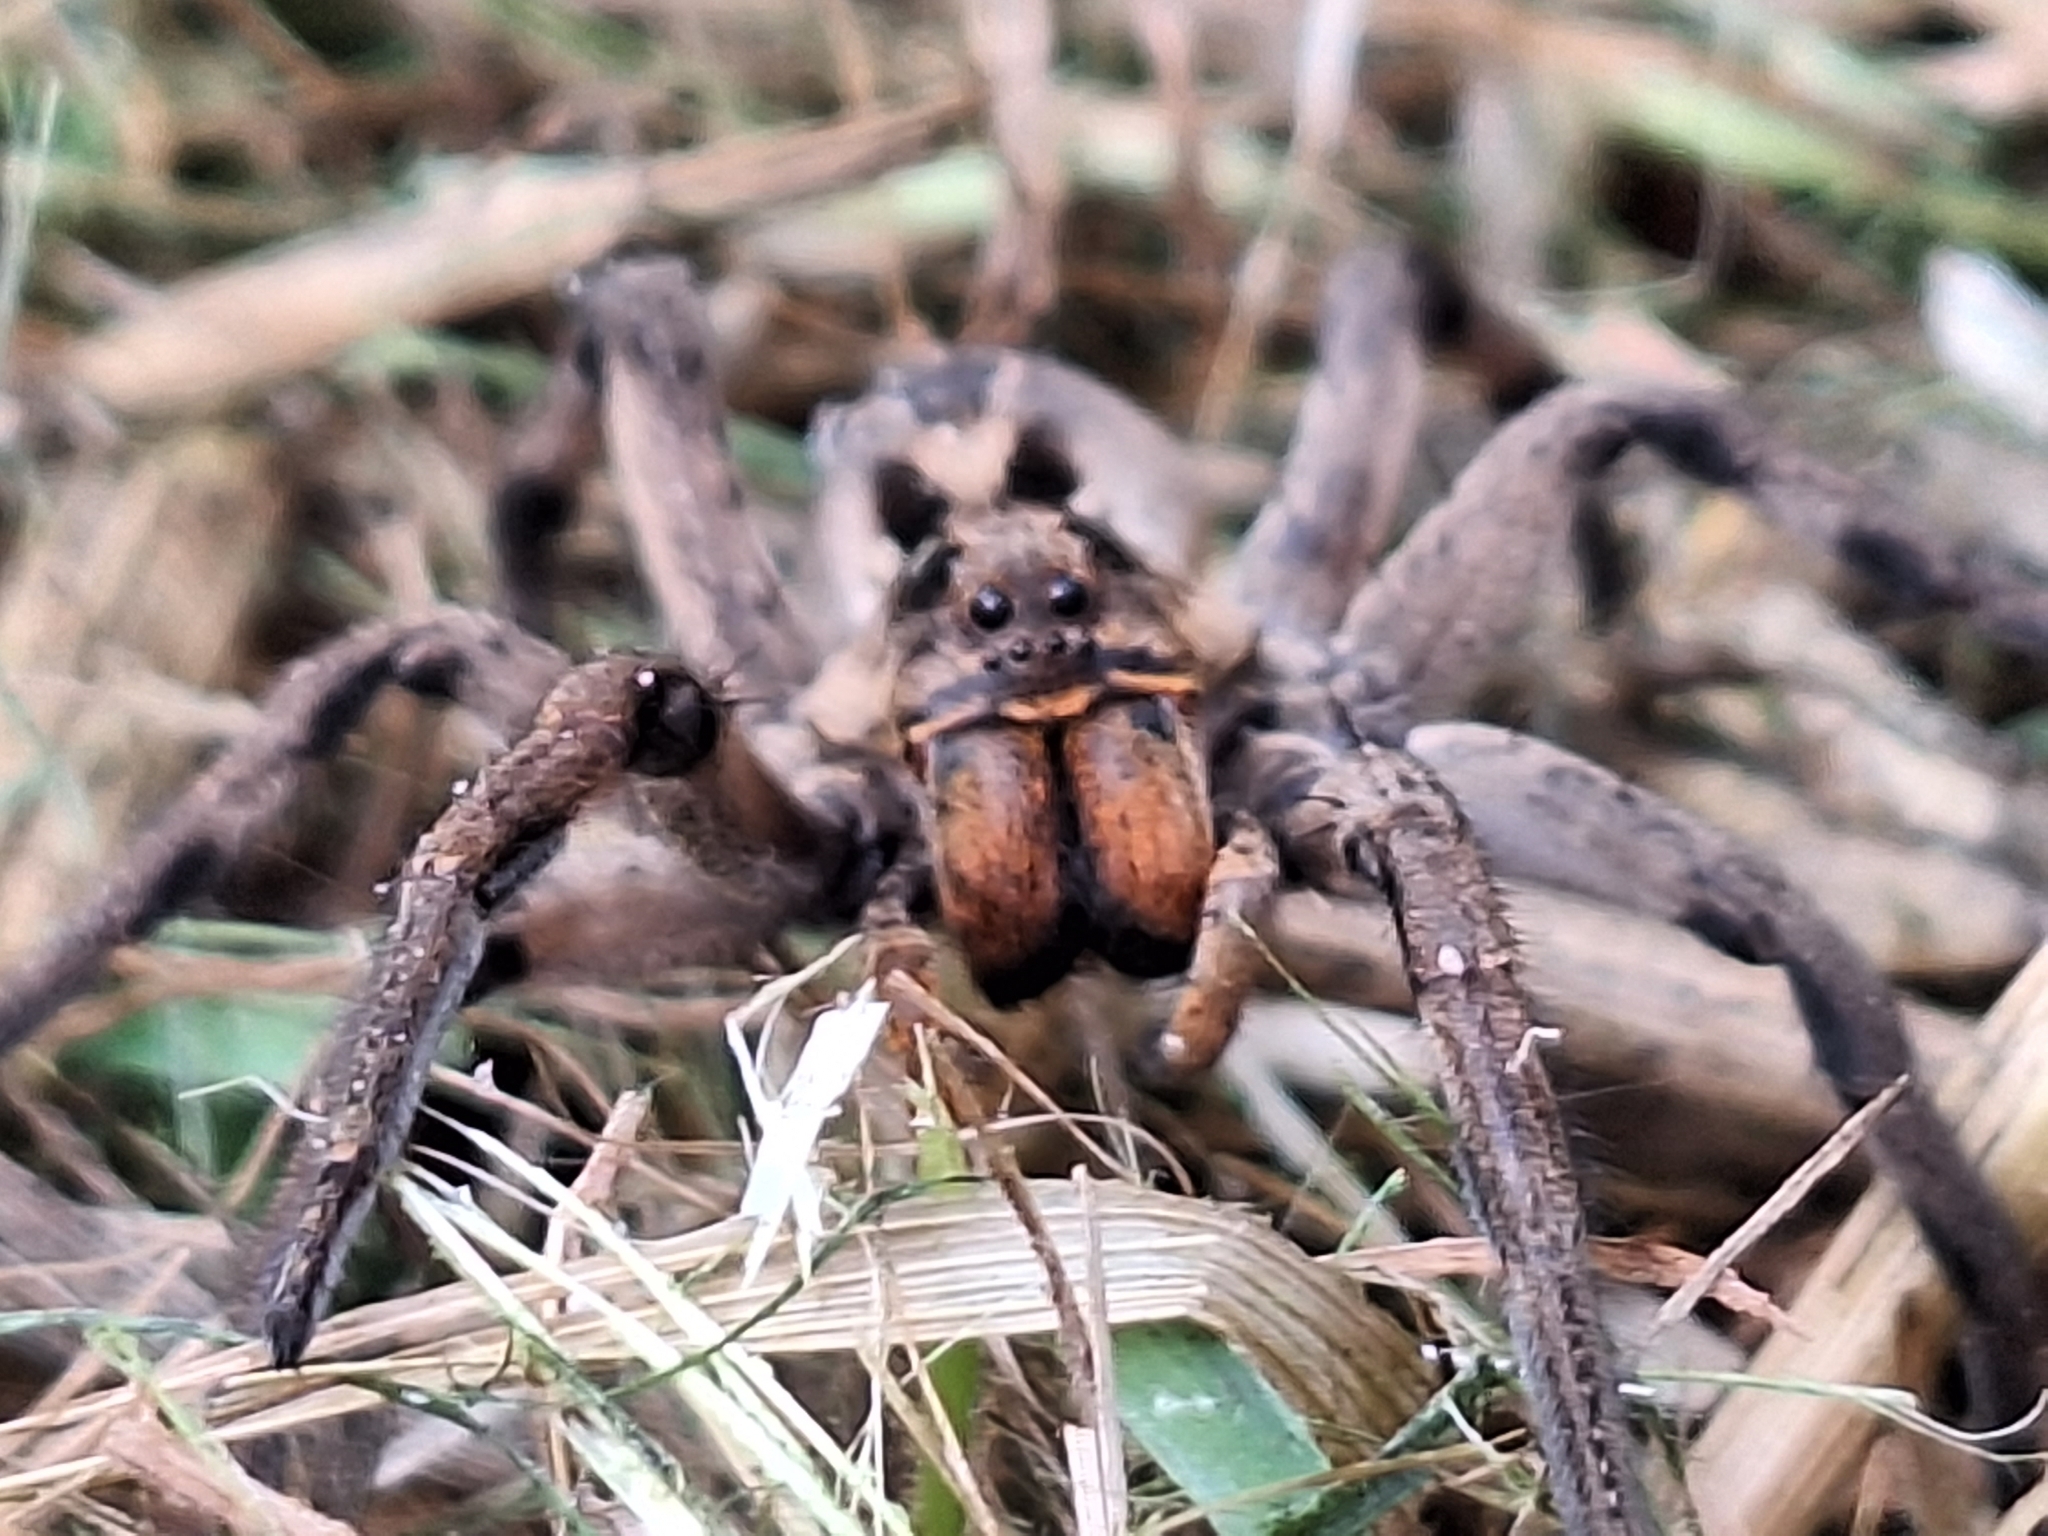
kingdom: Animalia
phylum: Arthropoda
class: Arachnida
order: Araneae
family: Lycosidae
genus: Lycosa
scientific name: Lycosa erythrognatha
